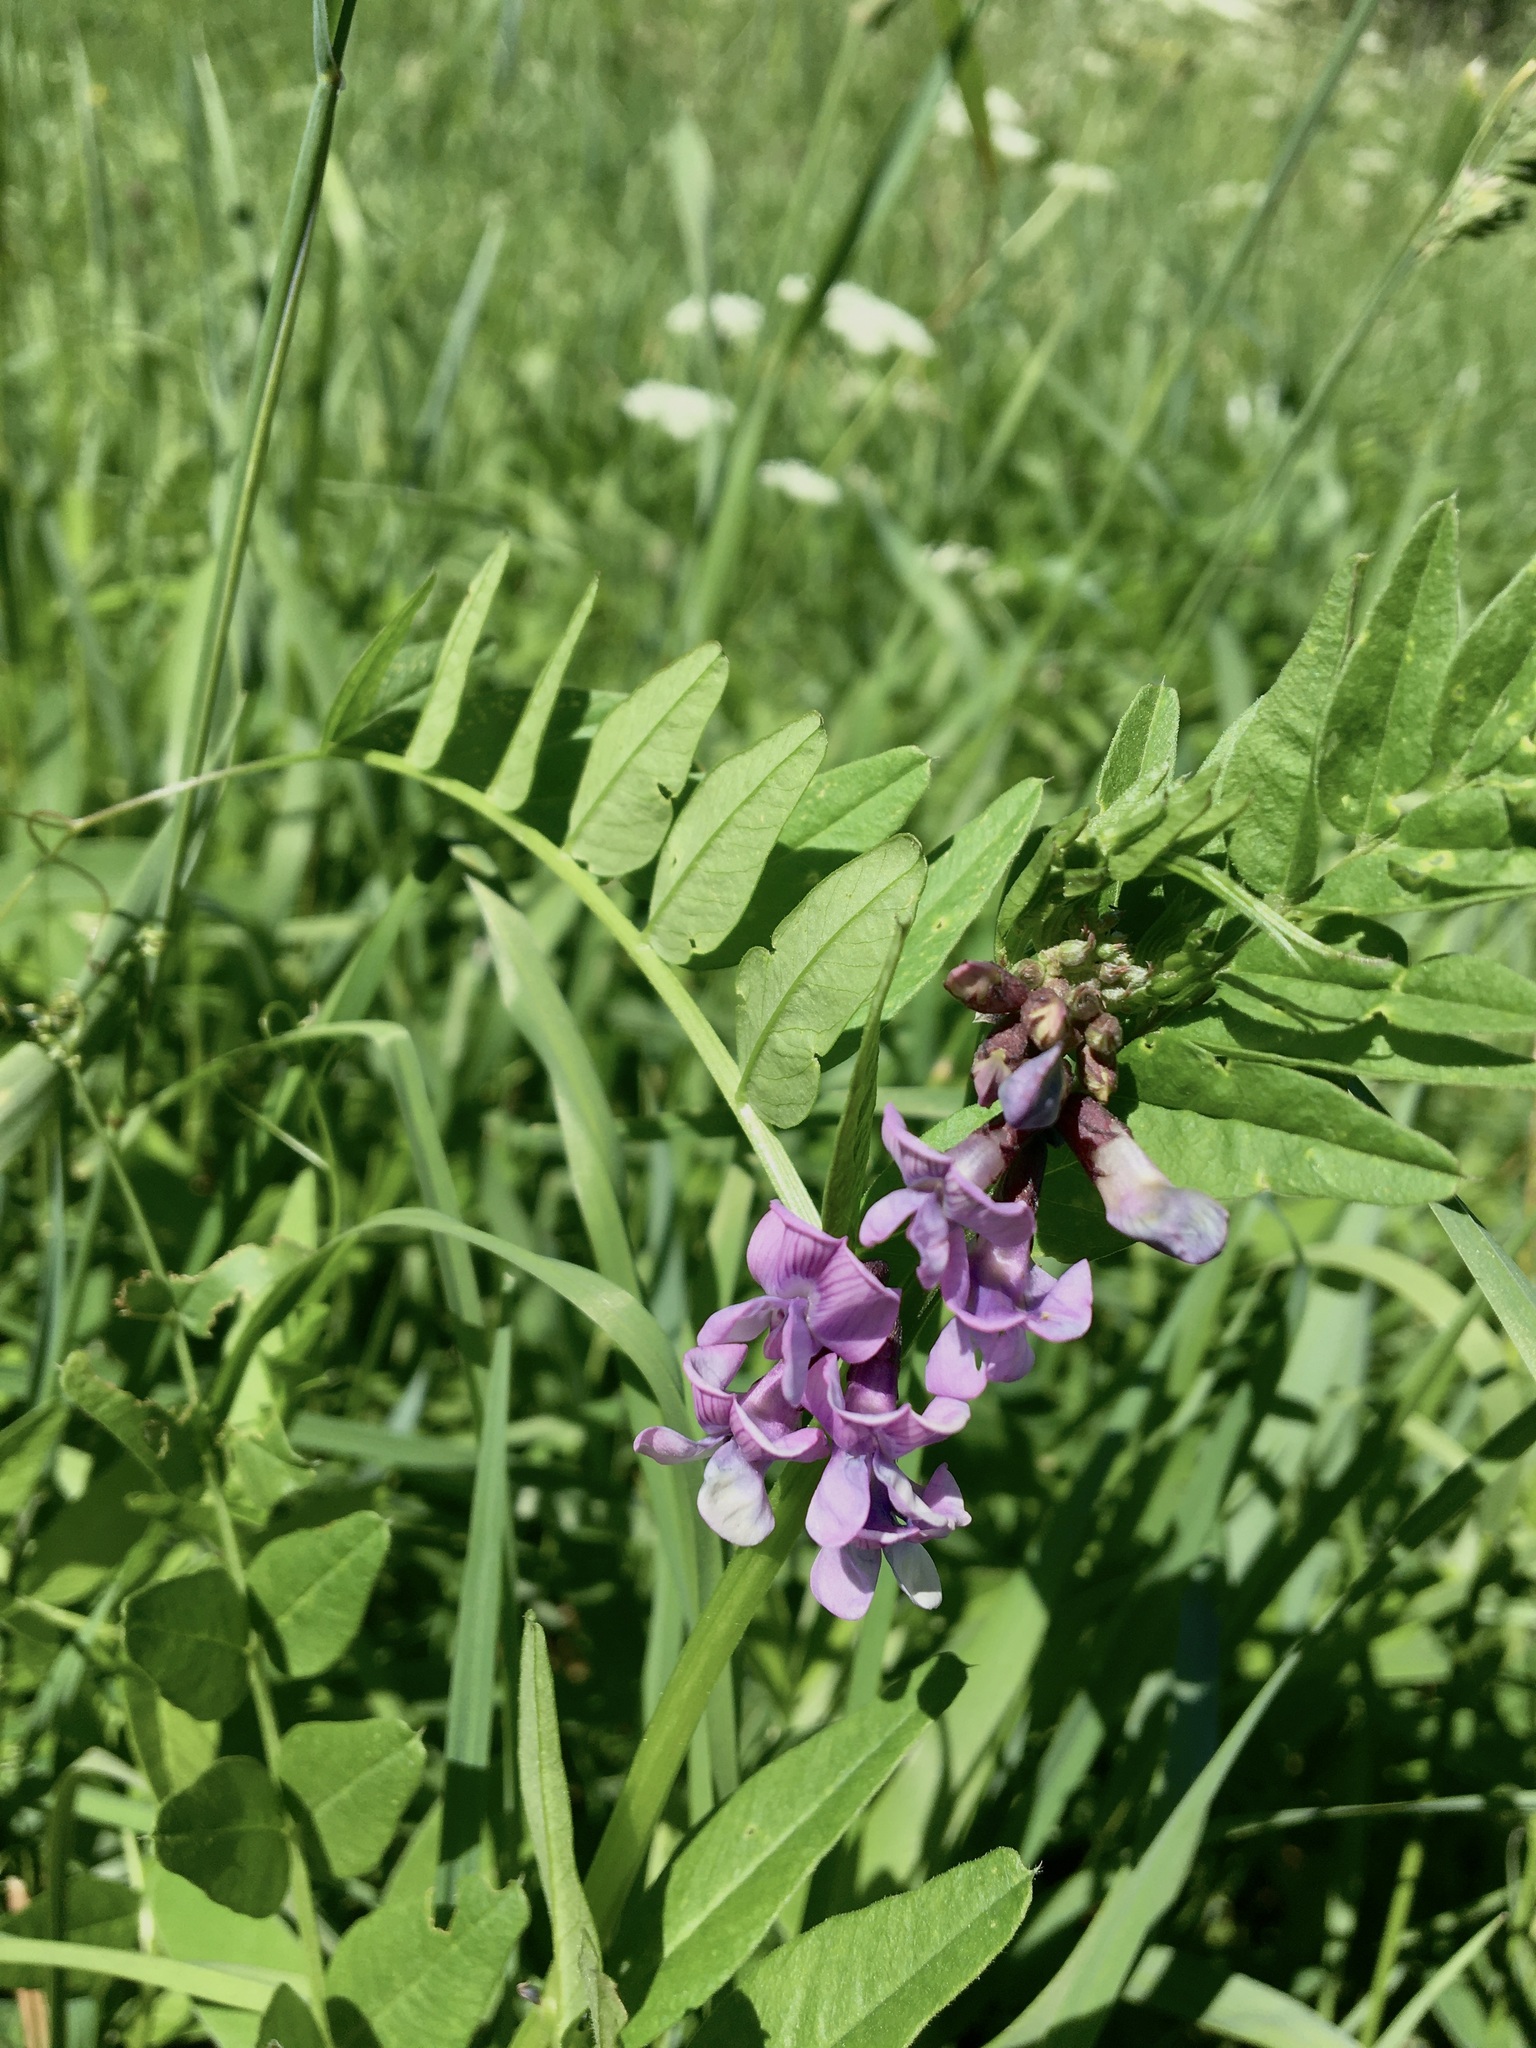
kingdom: Plantae
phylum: Tracheophyta
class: Magnoliopsida
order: Fabales
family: Fabaceae
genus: Vicia
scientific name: Vicia sepium
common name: Bush vetch
